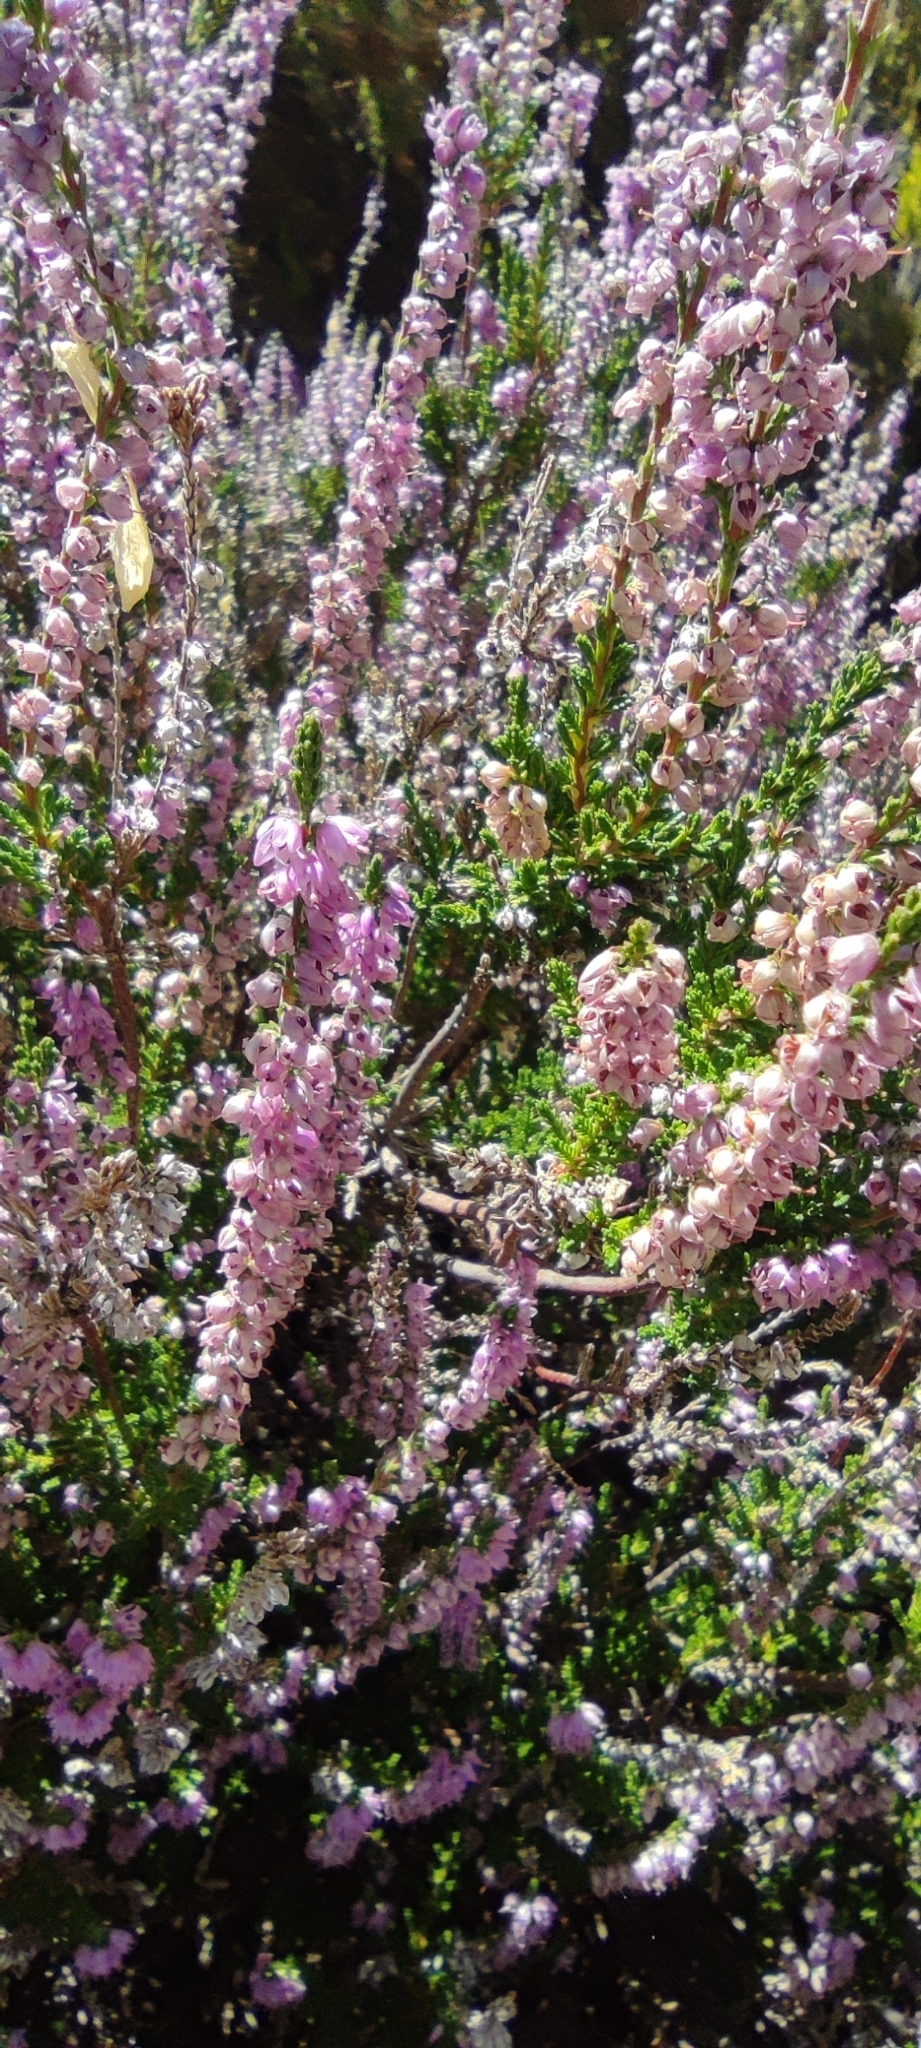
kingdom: Plantae
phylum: Tracheophyta
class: Magnoliopsida
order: Ericales
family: Ericaceae
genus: Calluna
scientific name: Calluna vulgaris
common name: Heather
